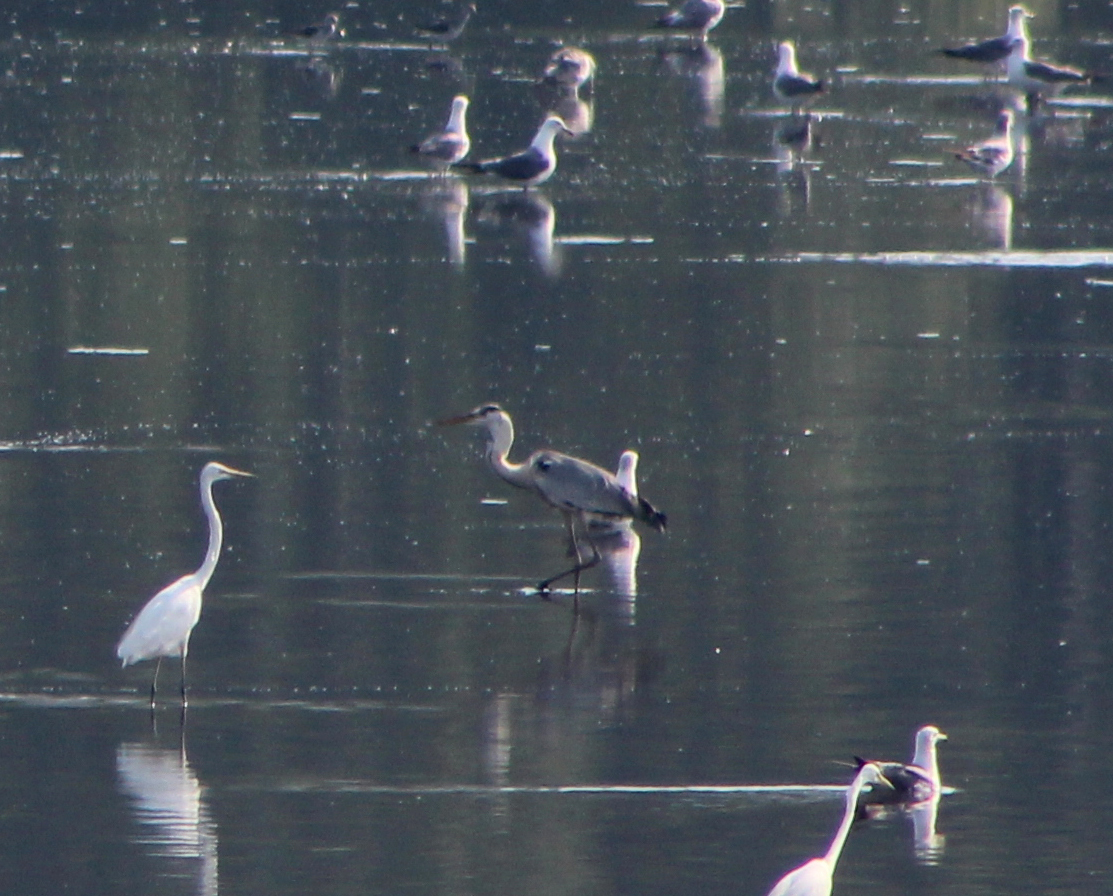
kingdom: Animalia
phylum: Chordata
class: Aves
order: Pelecaniformes
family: Ardeidae
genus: Ardea
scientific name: Ardea cinerea
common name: Grey heron
